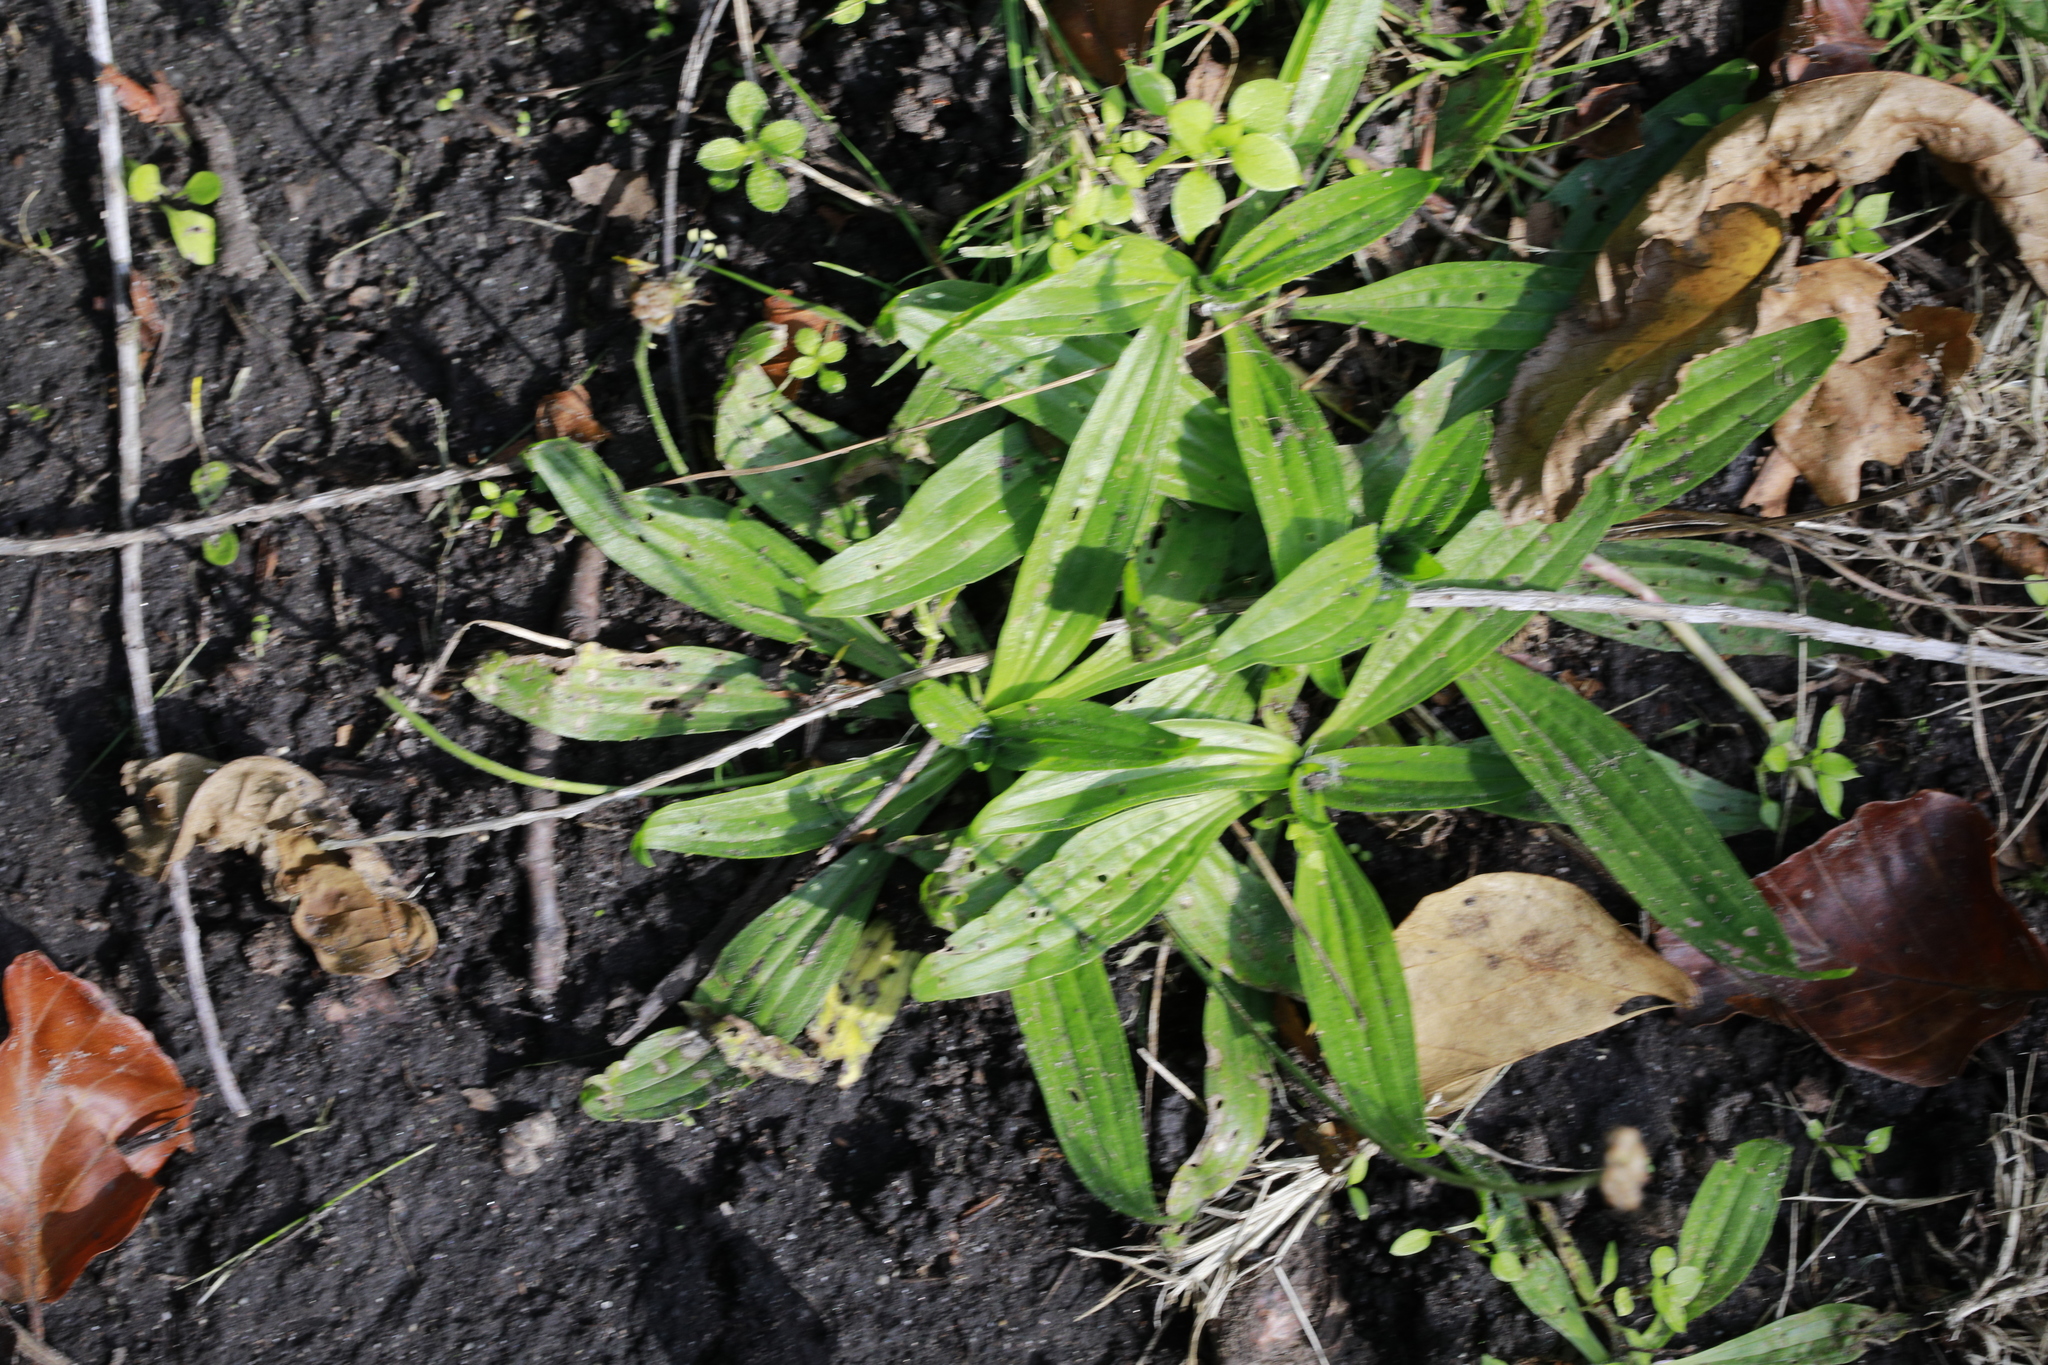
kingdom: Plantae
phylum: Tracheophyta
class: Magnoliopsida
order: Lamiales
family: Plantaginaceae
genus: Plantago
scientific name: Plantago lanceolata
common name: Ribwort plantain
